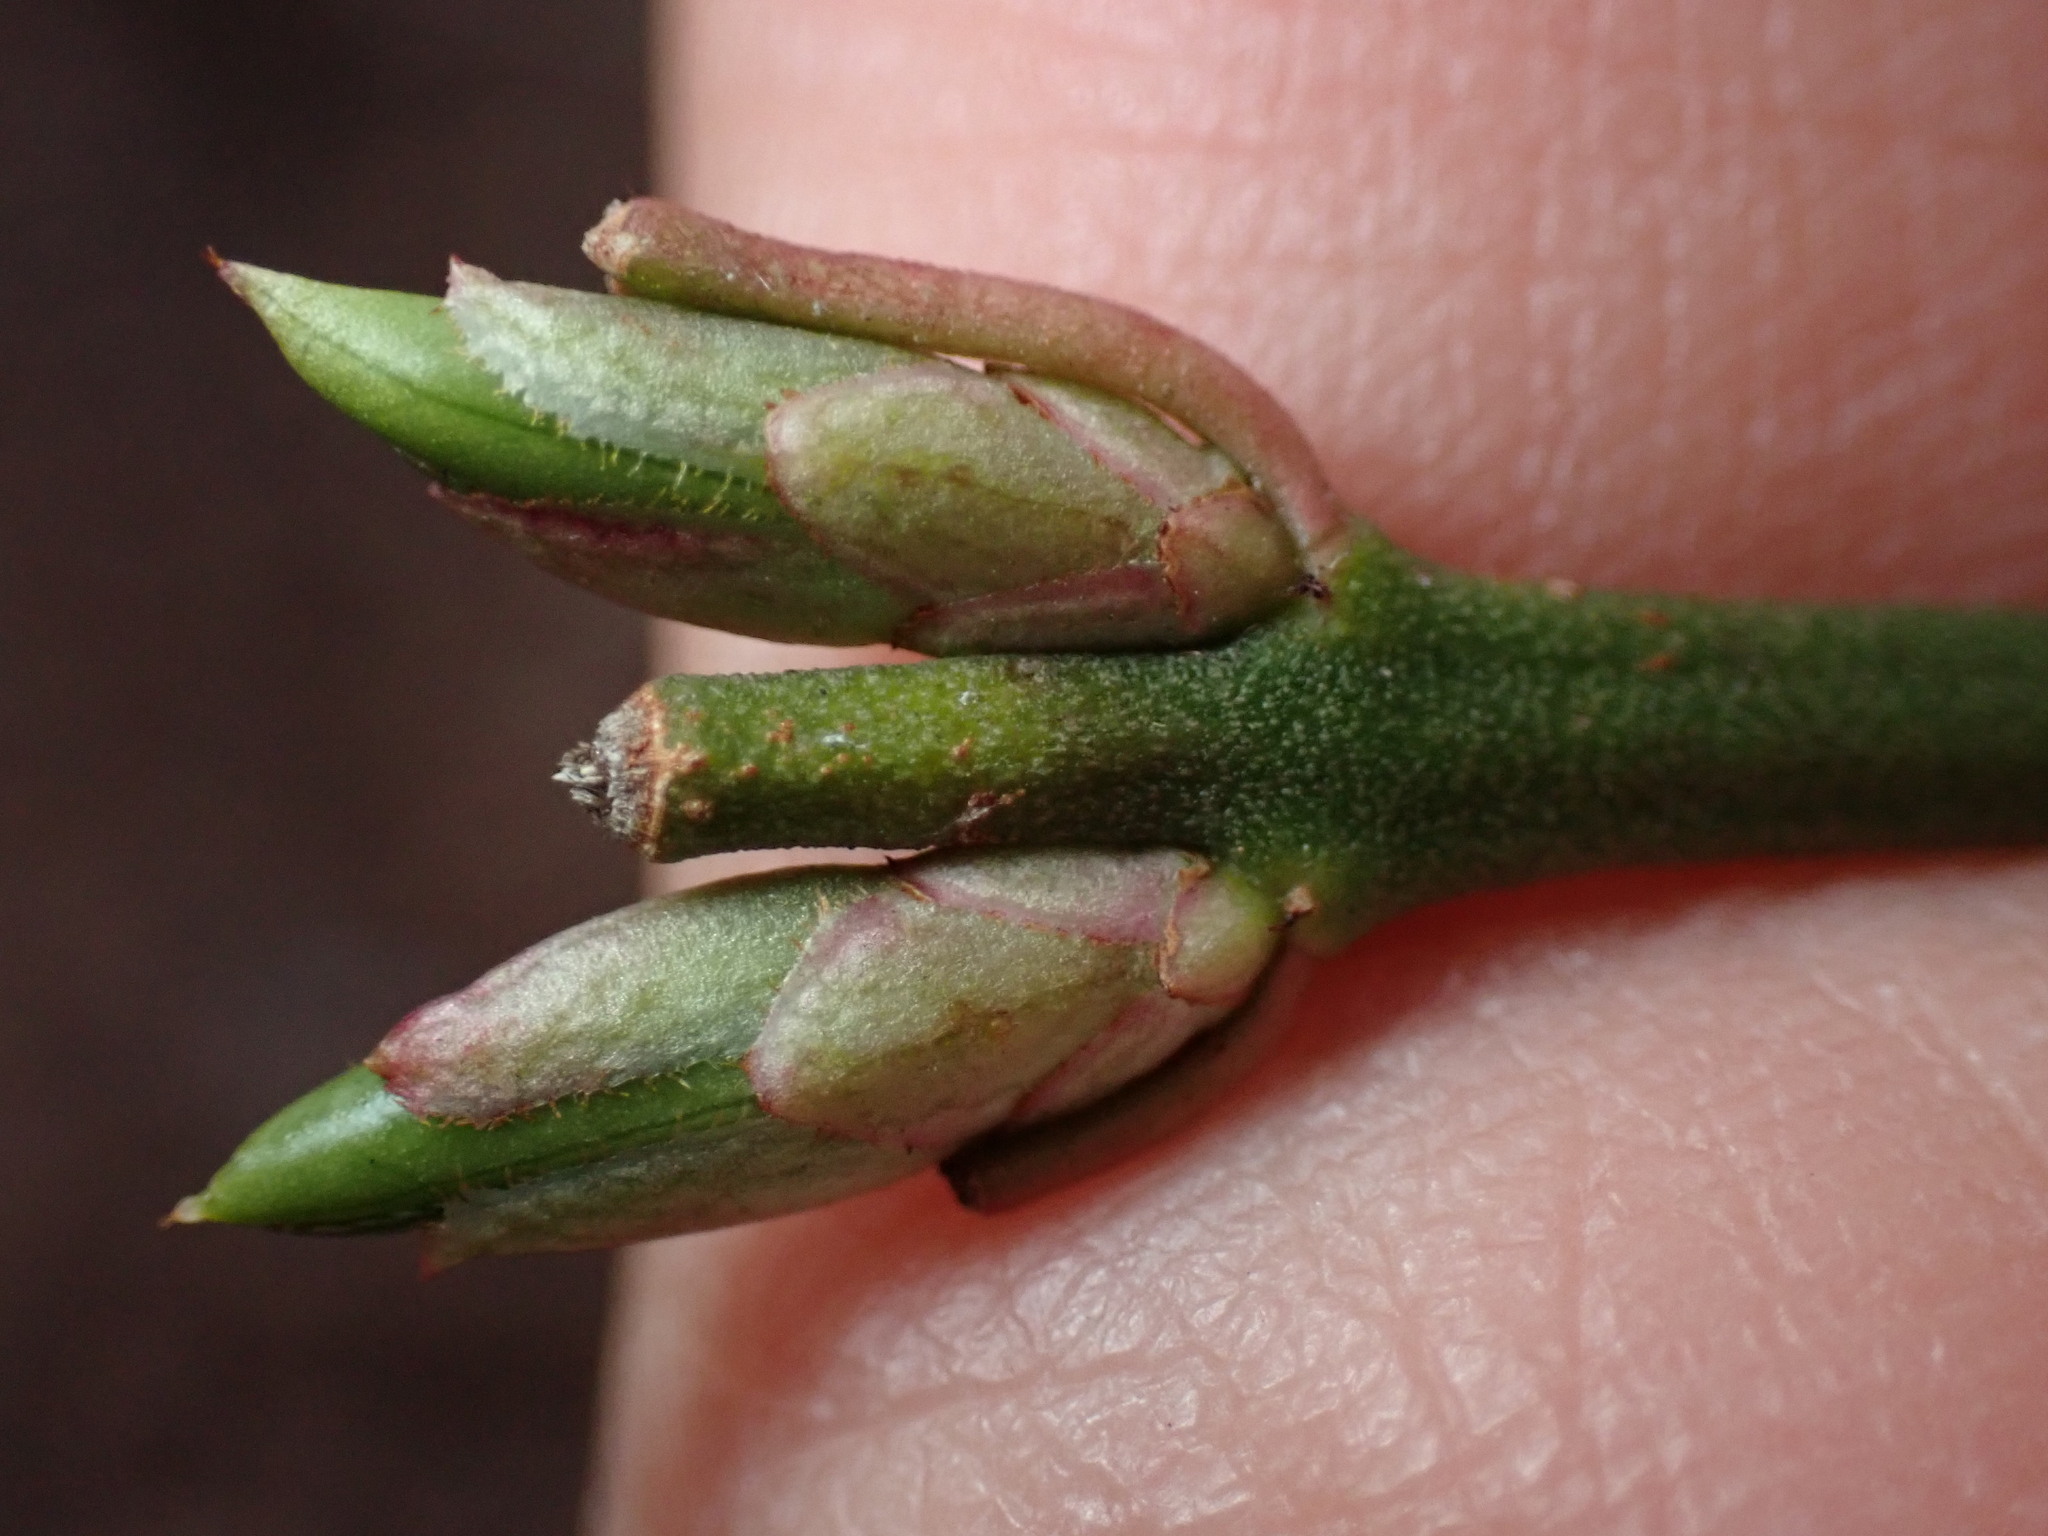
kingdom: Plantae
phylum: Tracheophyta
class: Magnoliopsida
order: Celastrales
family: Celastraceae
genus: Euonymus
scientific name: Euonymus fortunei
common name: Climbing euonymus
